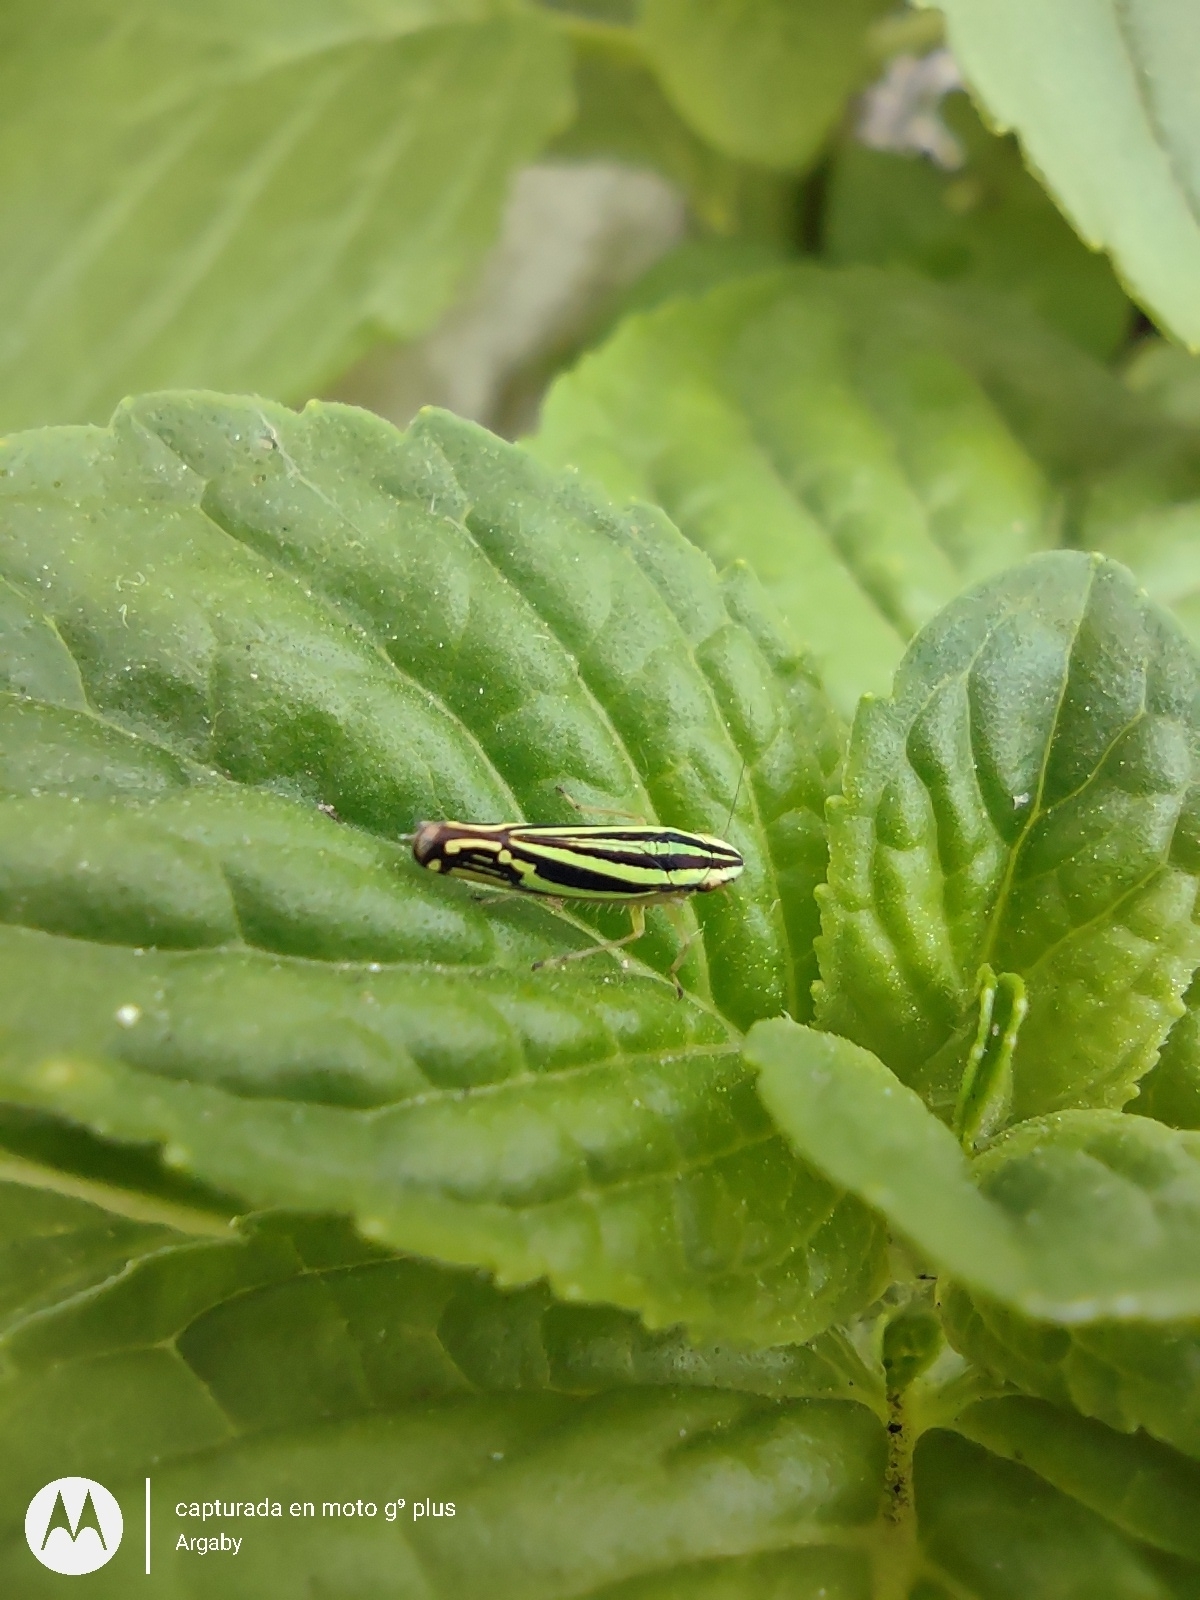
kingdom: Animalia
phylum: Arthropoda
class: Insecta
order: Hemiptera
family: Cicadellidae
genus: Sibovia
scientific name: Sibovia sagata
